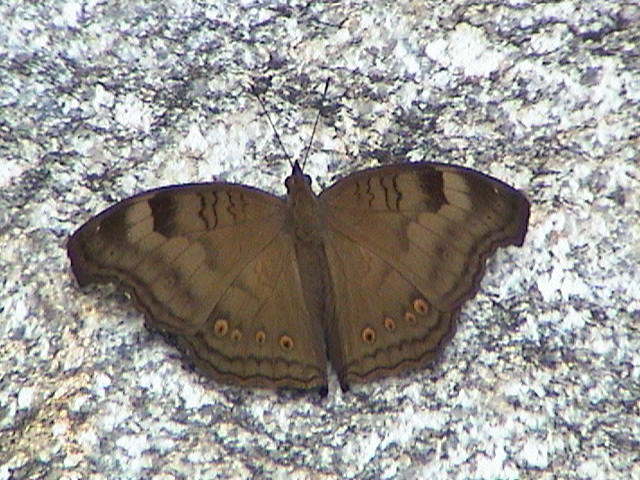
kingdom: Animalia
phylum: Arthropoda
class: Insecta
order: Lepidoptera
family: Nymphalidae
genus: Junonia
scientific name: Junonia iphita
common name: Chocolate pansy
